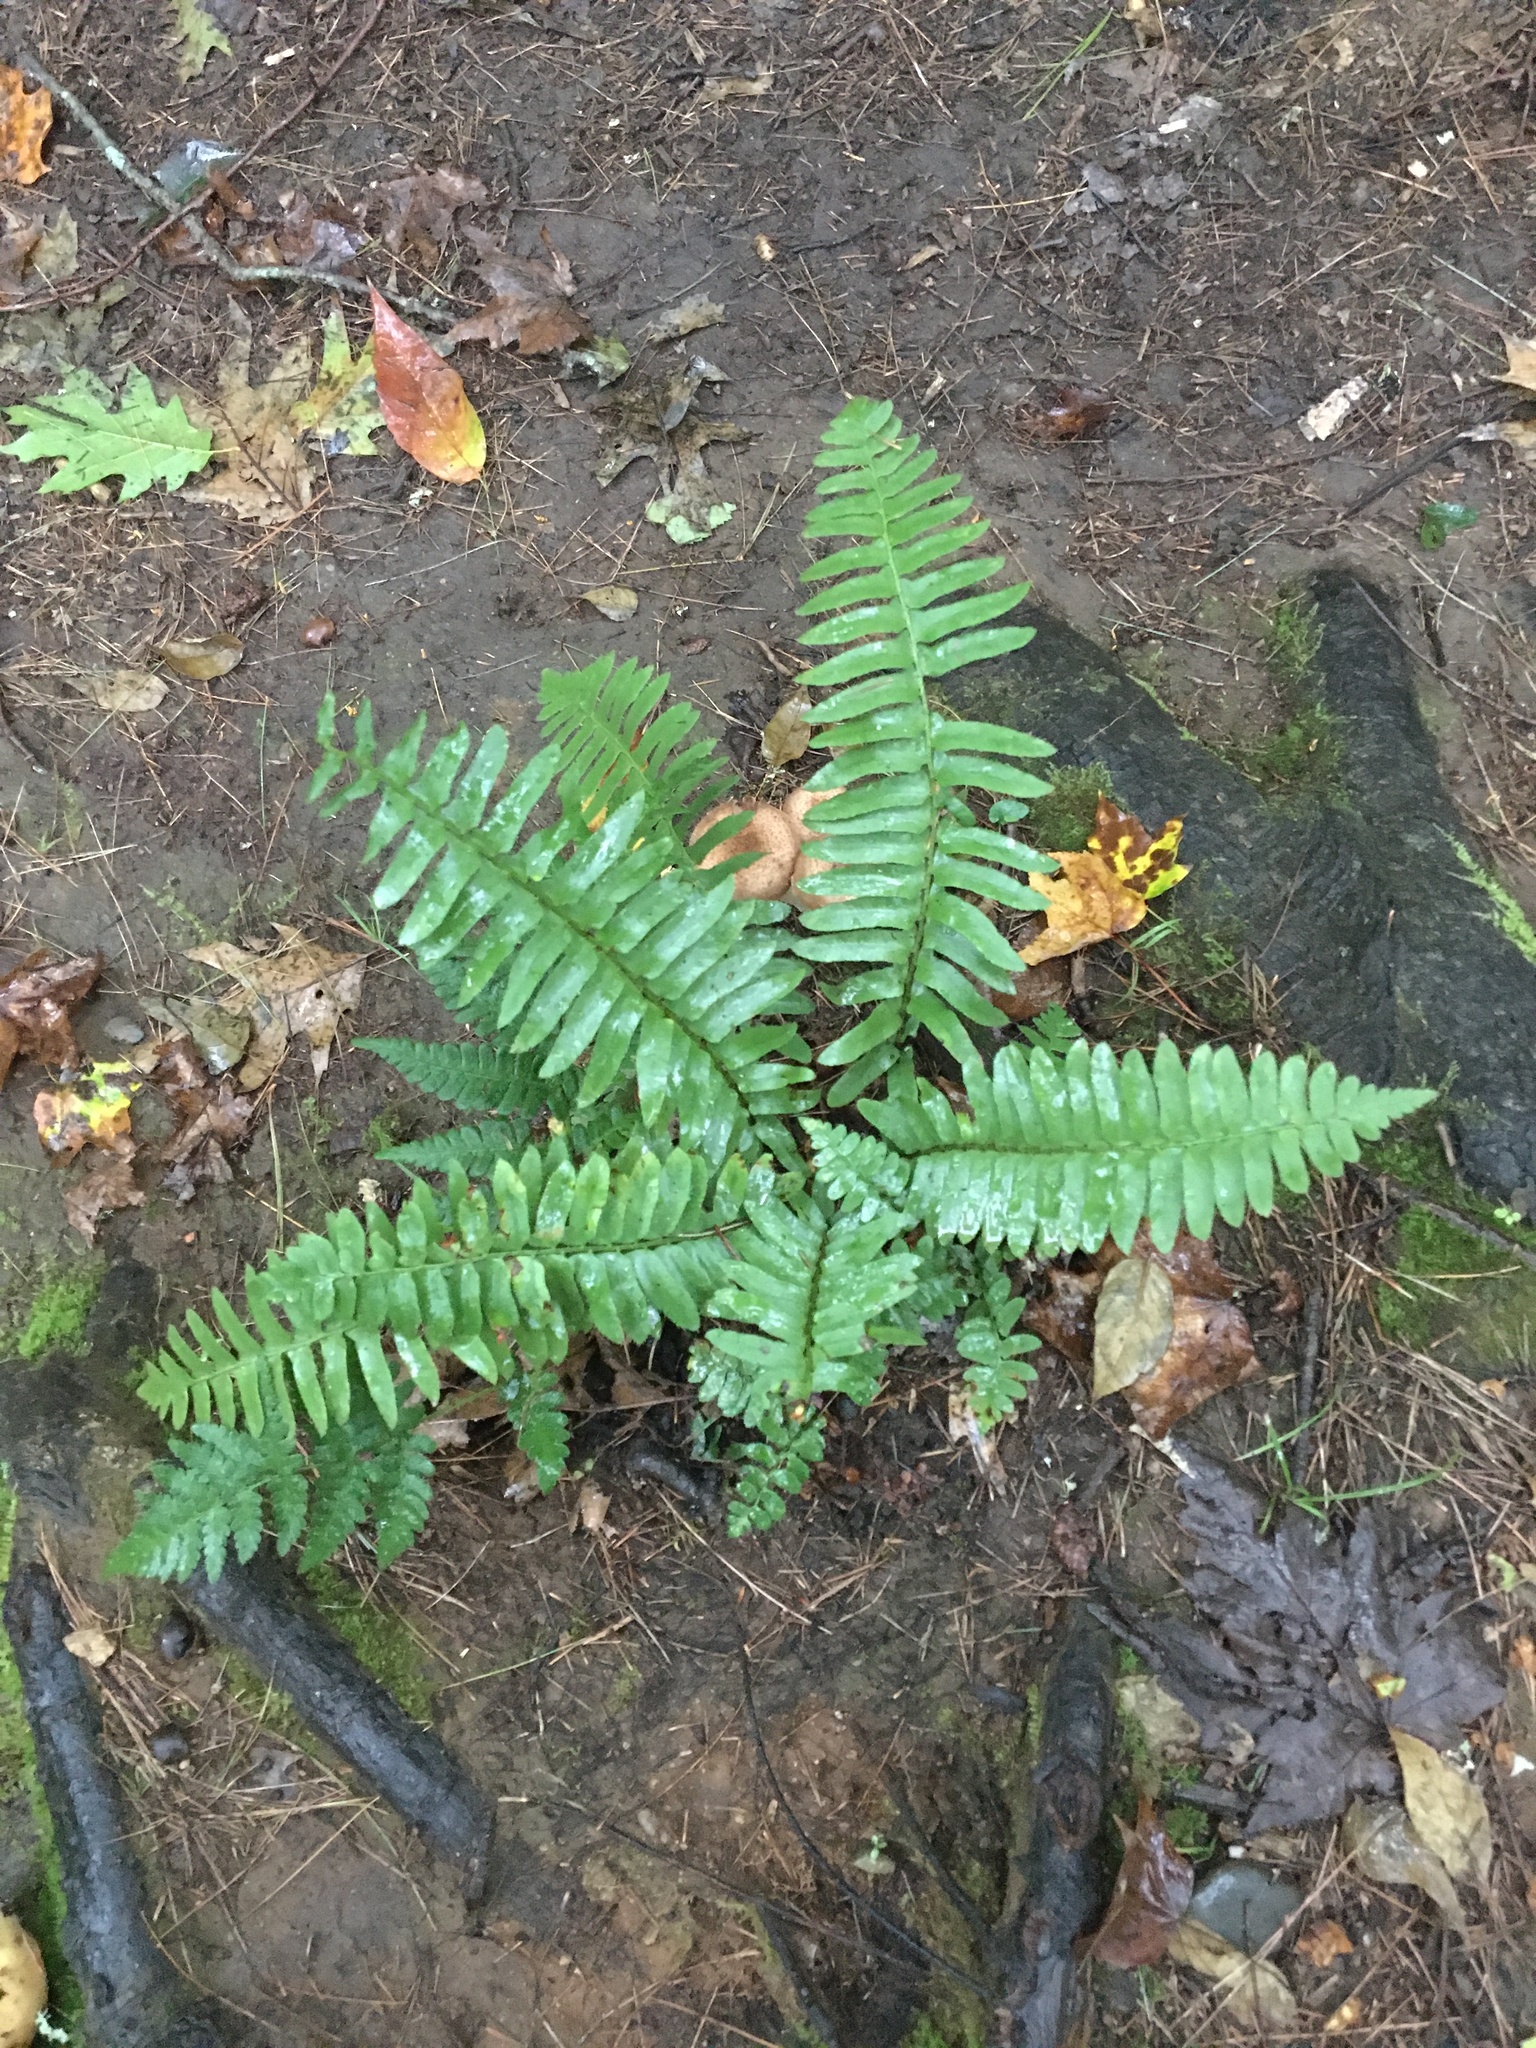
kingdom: Plantae
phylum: Tracheophyta
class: Polypodiopsida
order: Polypodiales
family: Dryopteridaceae
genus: Polystichum
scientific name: Polystichum acrostichoides
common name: Christmas fern
